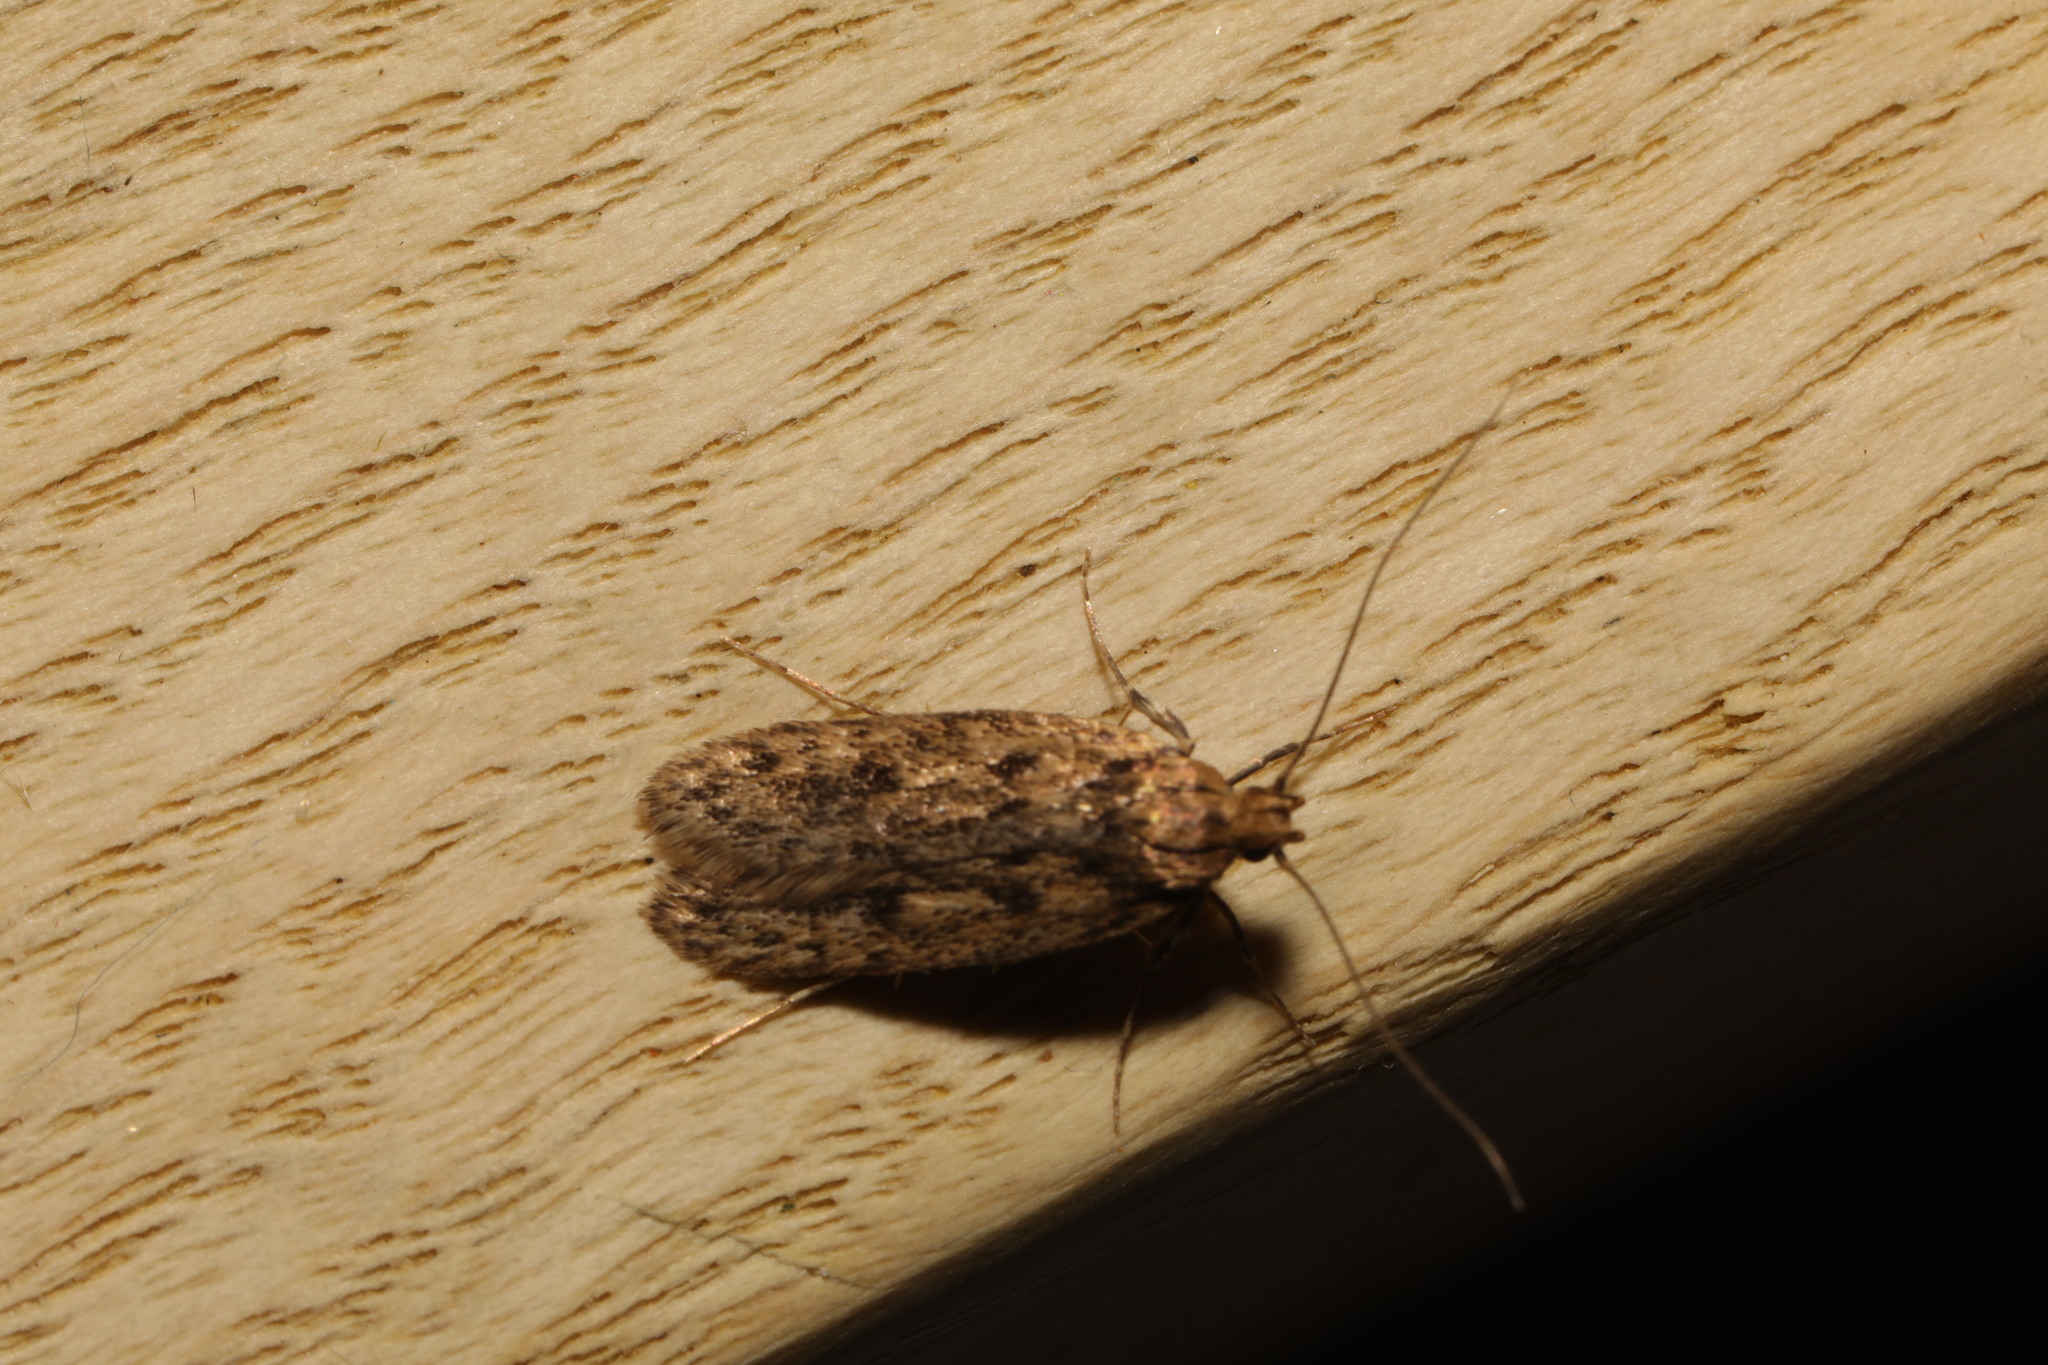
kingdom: Animalia
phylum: Arthropoda
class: Insecta
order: Lepidoptera
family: Oecophoridae
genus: Hofmannophila
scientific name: Hofmannophila pseudospretella
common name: Brown house moth
